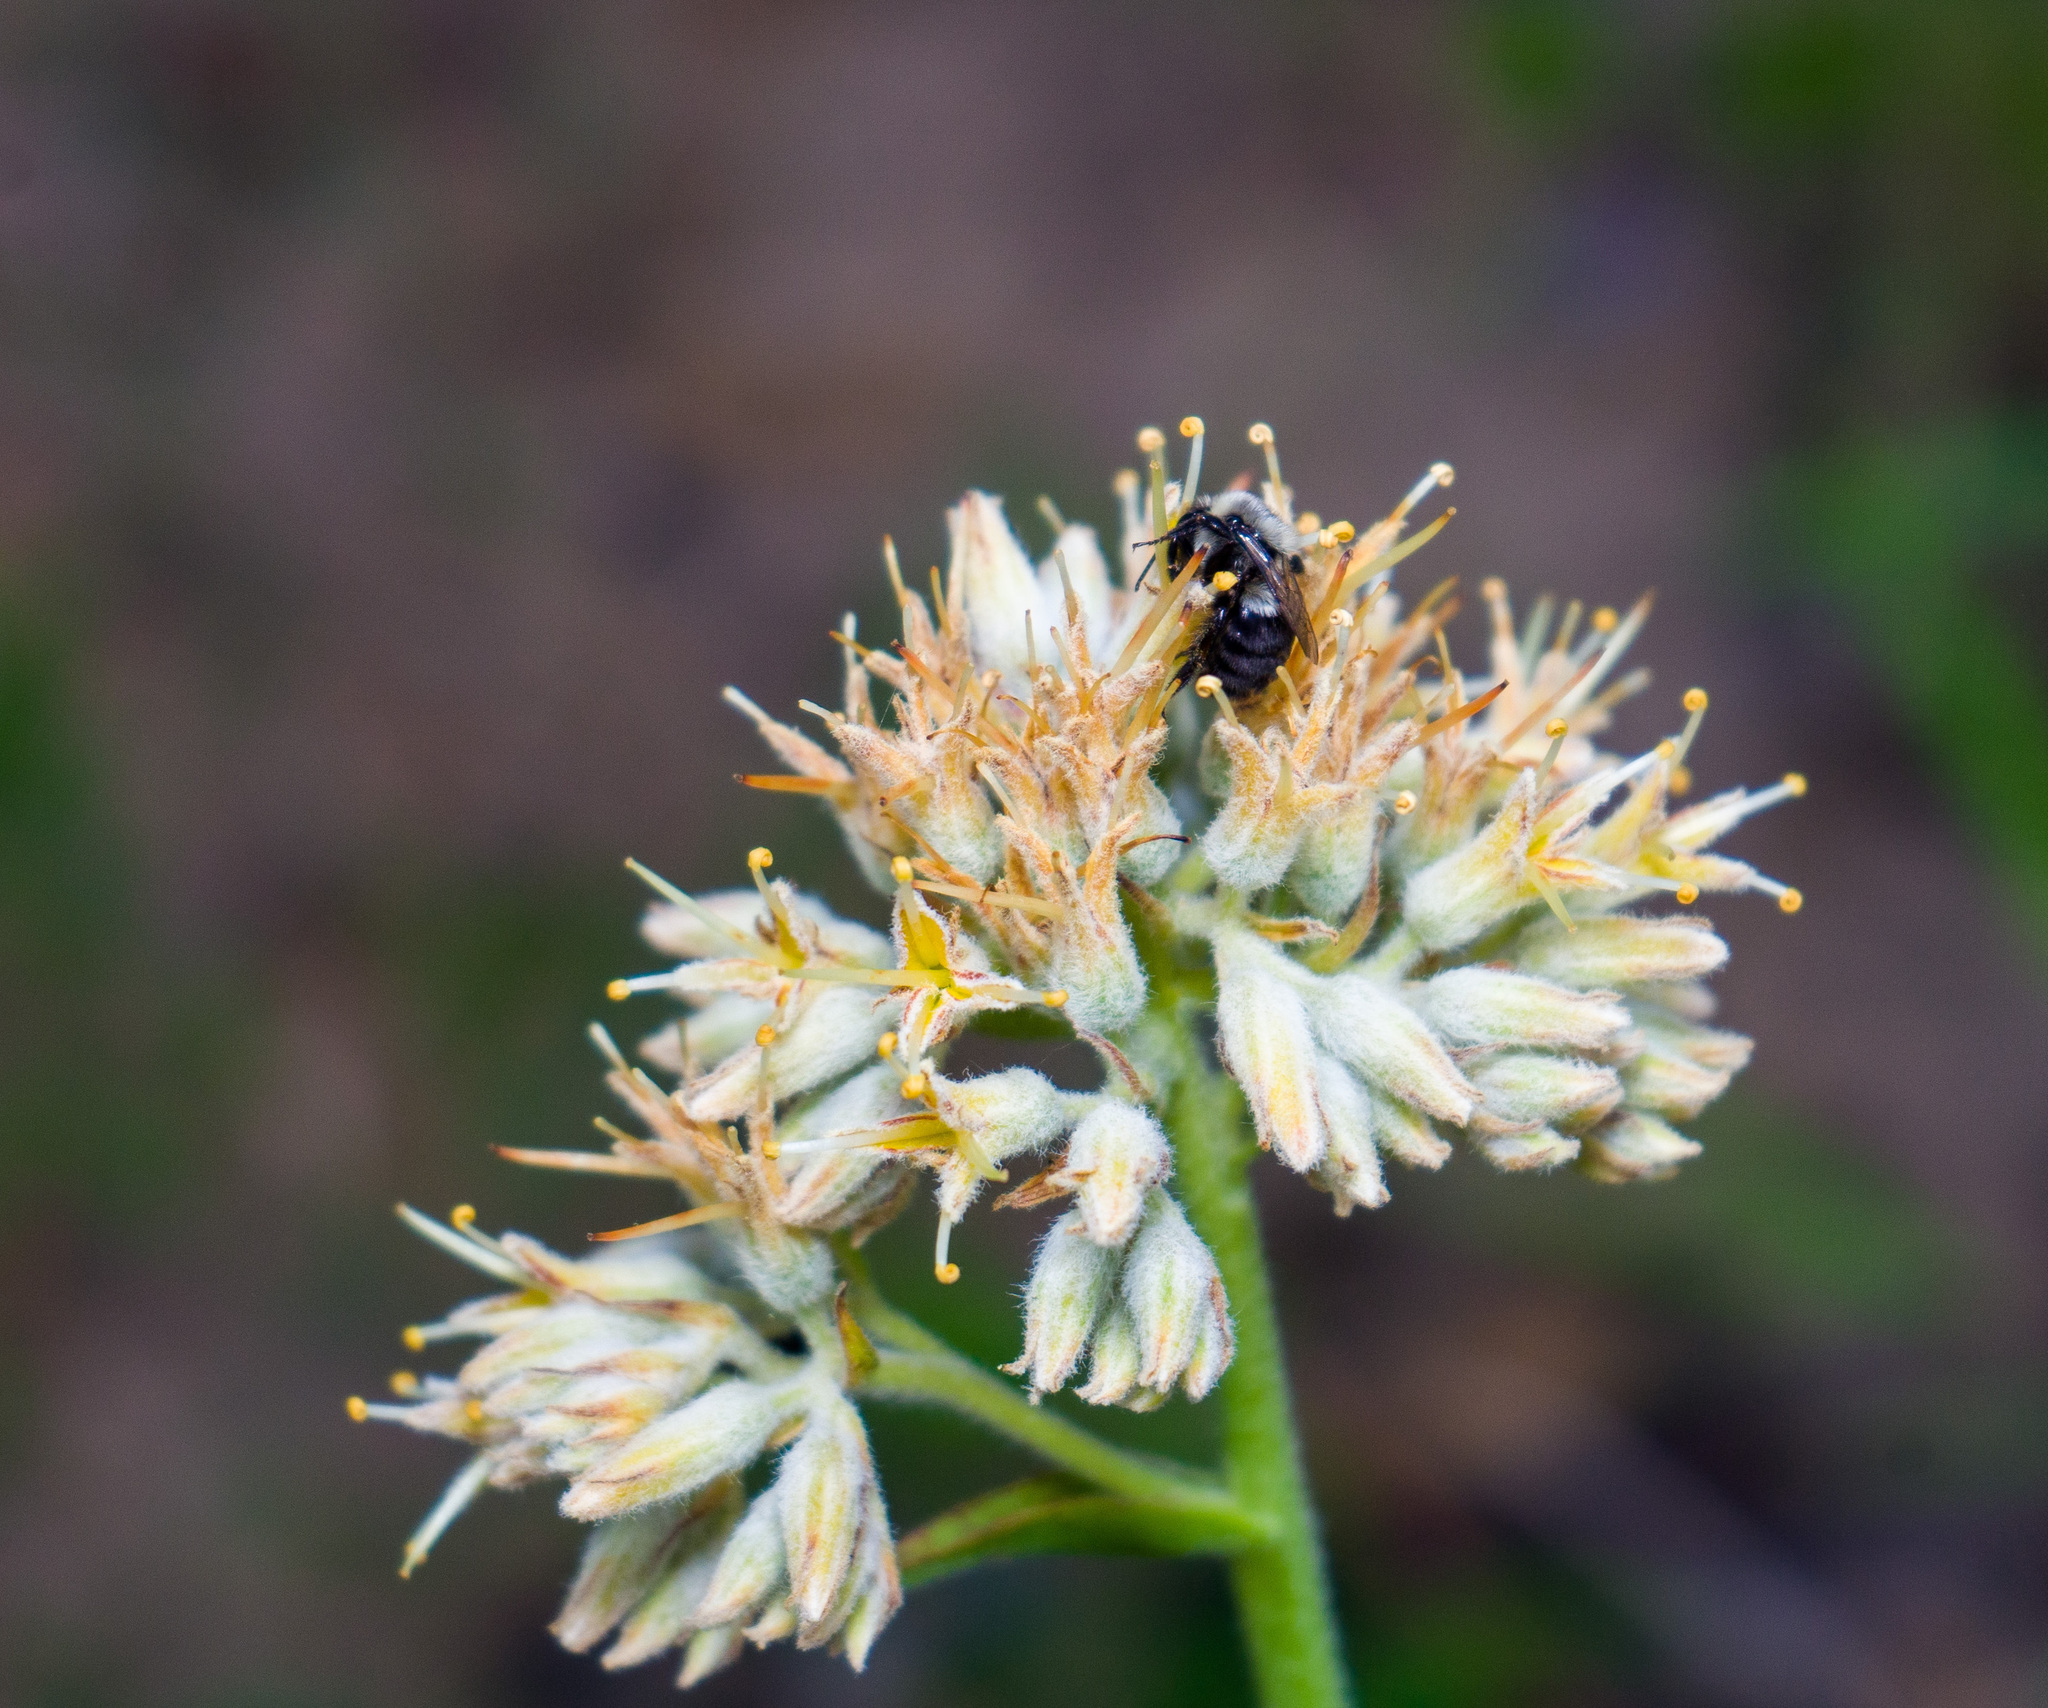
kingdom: Animalia
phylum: Arthropoda
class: Insecta
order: Hymenoptera
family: Apidae
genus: Bombus
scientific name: Bombus impatiens
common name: Common eastern bumble bee
